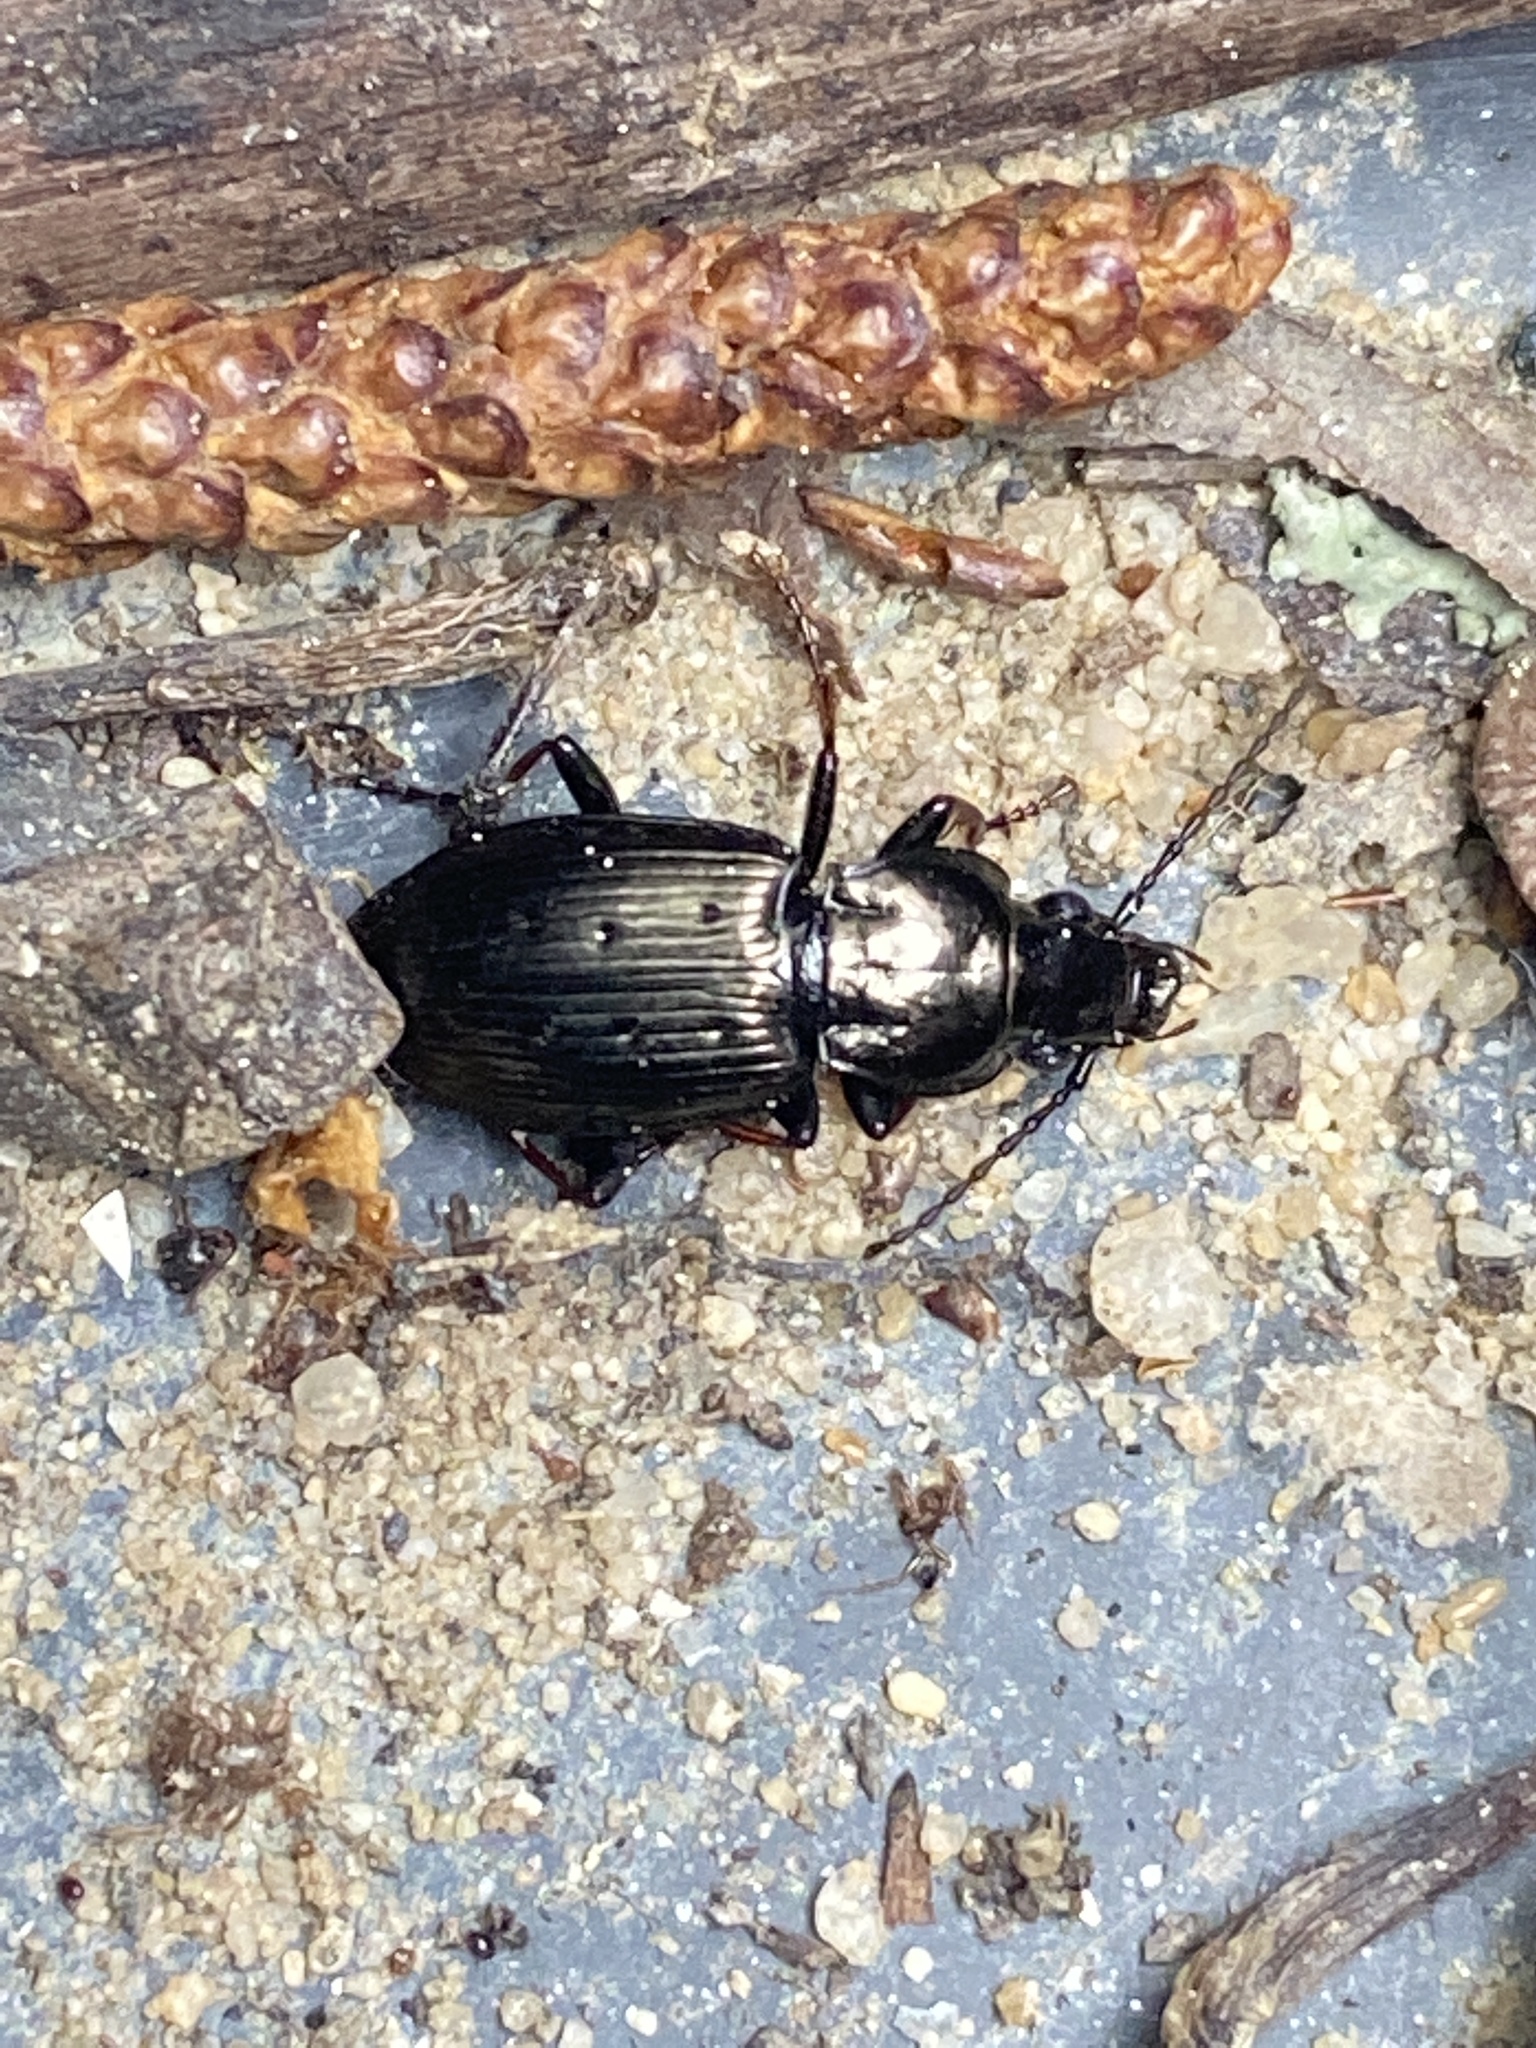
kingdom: Animalia
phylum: Arthropoda
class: Insecta
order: Coleoptera
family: Carabidae
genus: Pterostichus
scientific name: Pterostichus oblongopunctatus
